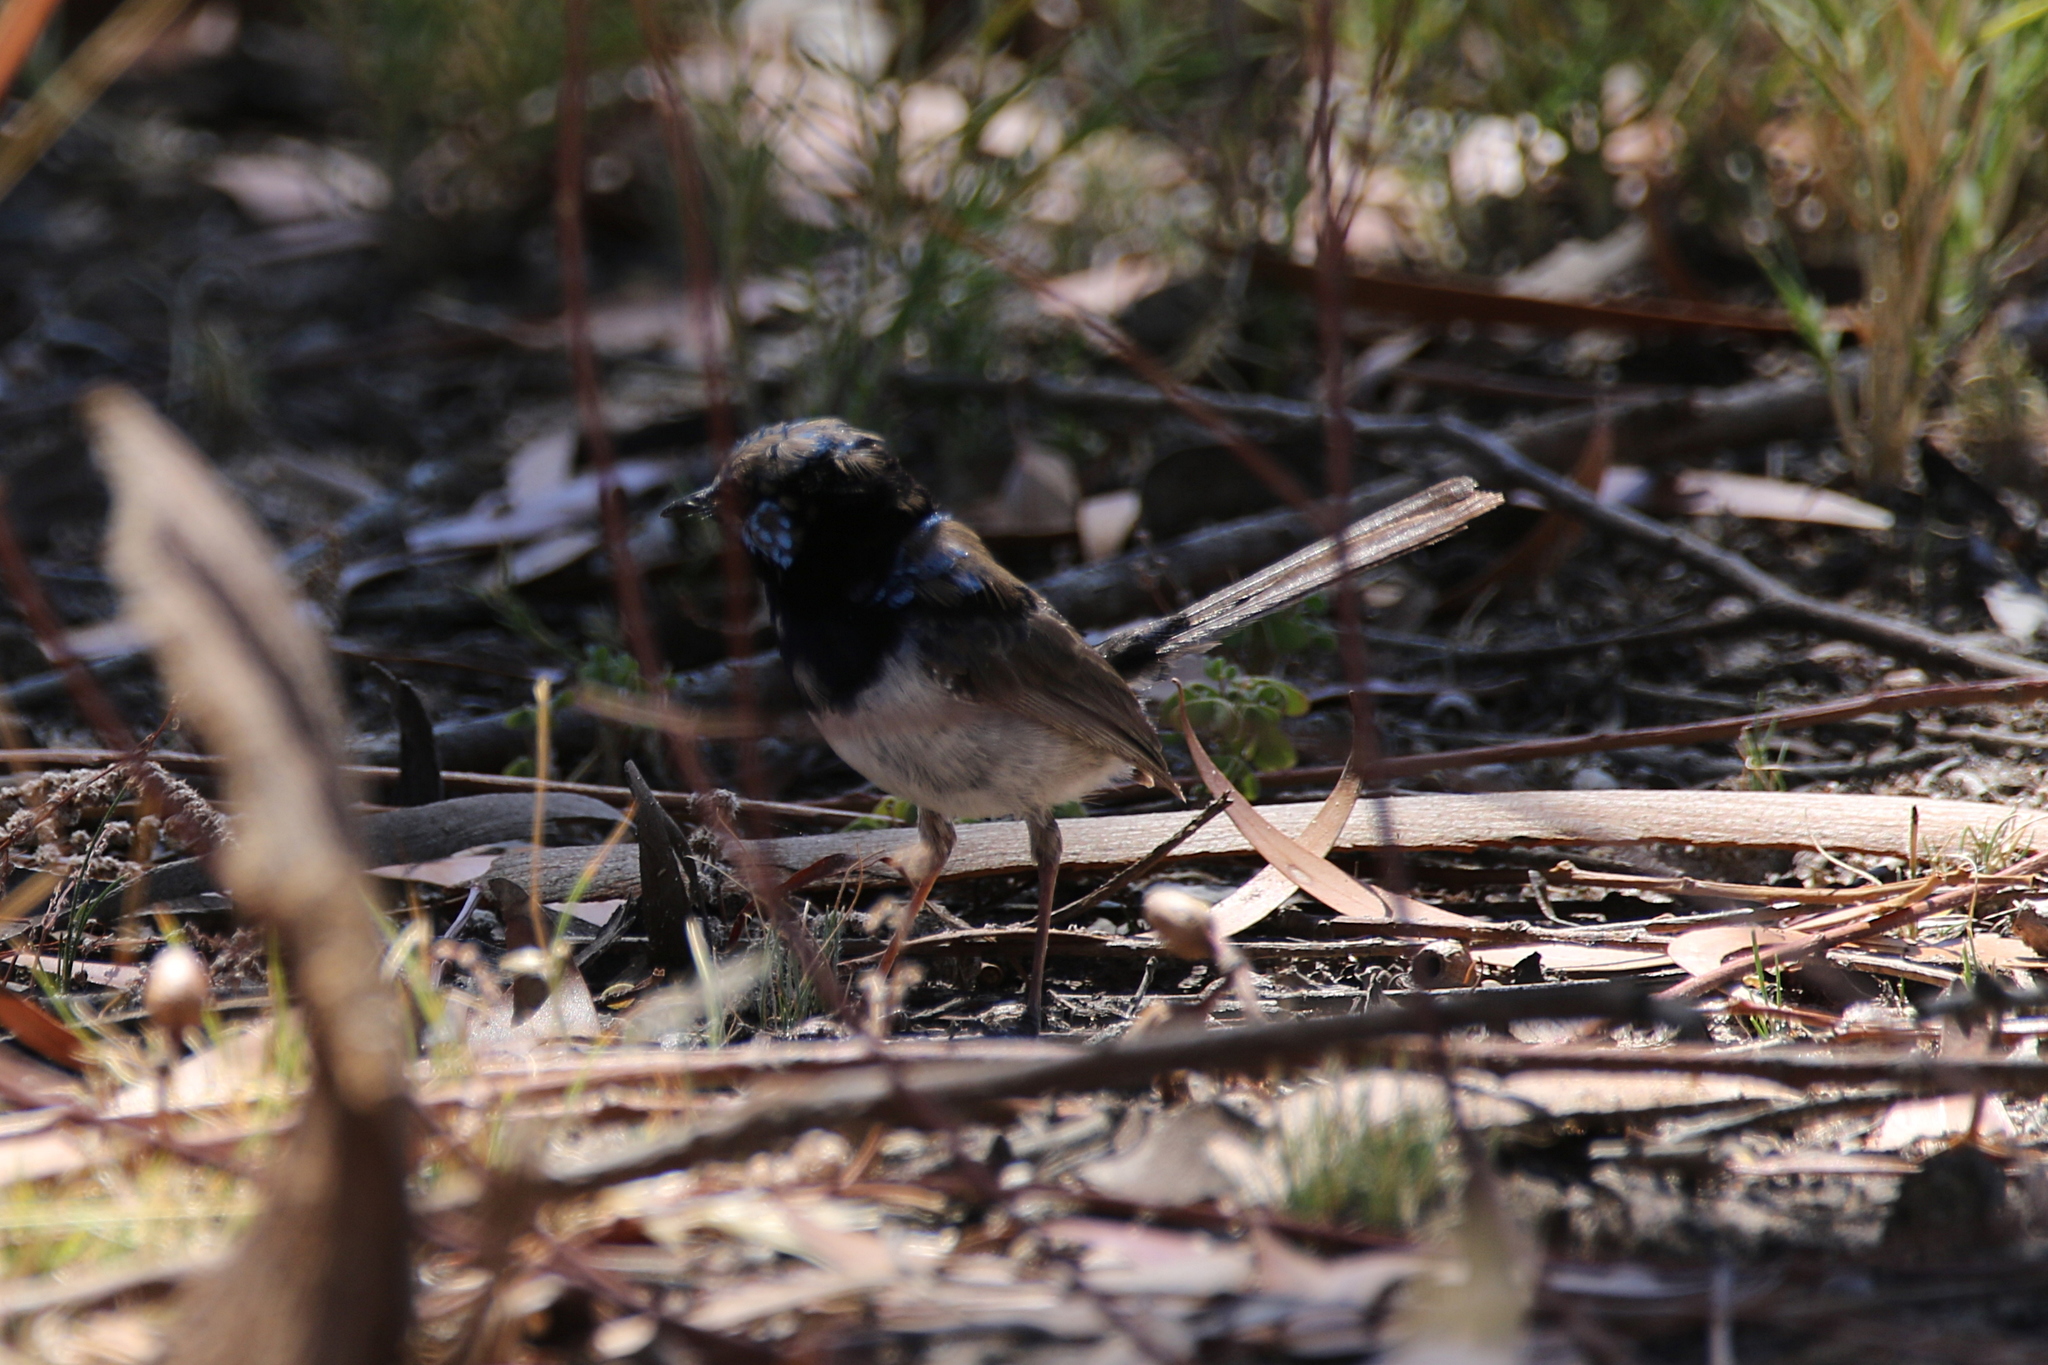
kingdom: Animalia
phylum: Chordata
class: Aves
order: Passeriformes
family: Maluridae
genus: Malurus
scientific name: Malurus cyaneus
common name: Superb fairywren
